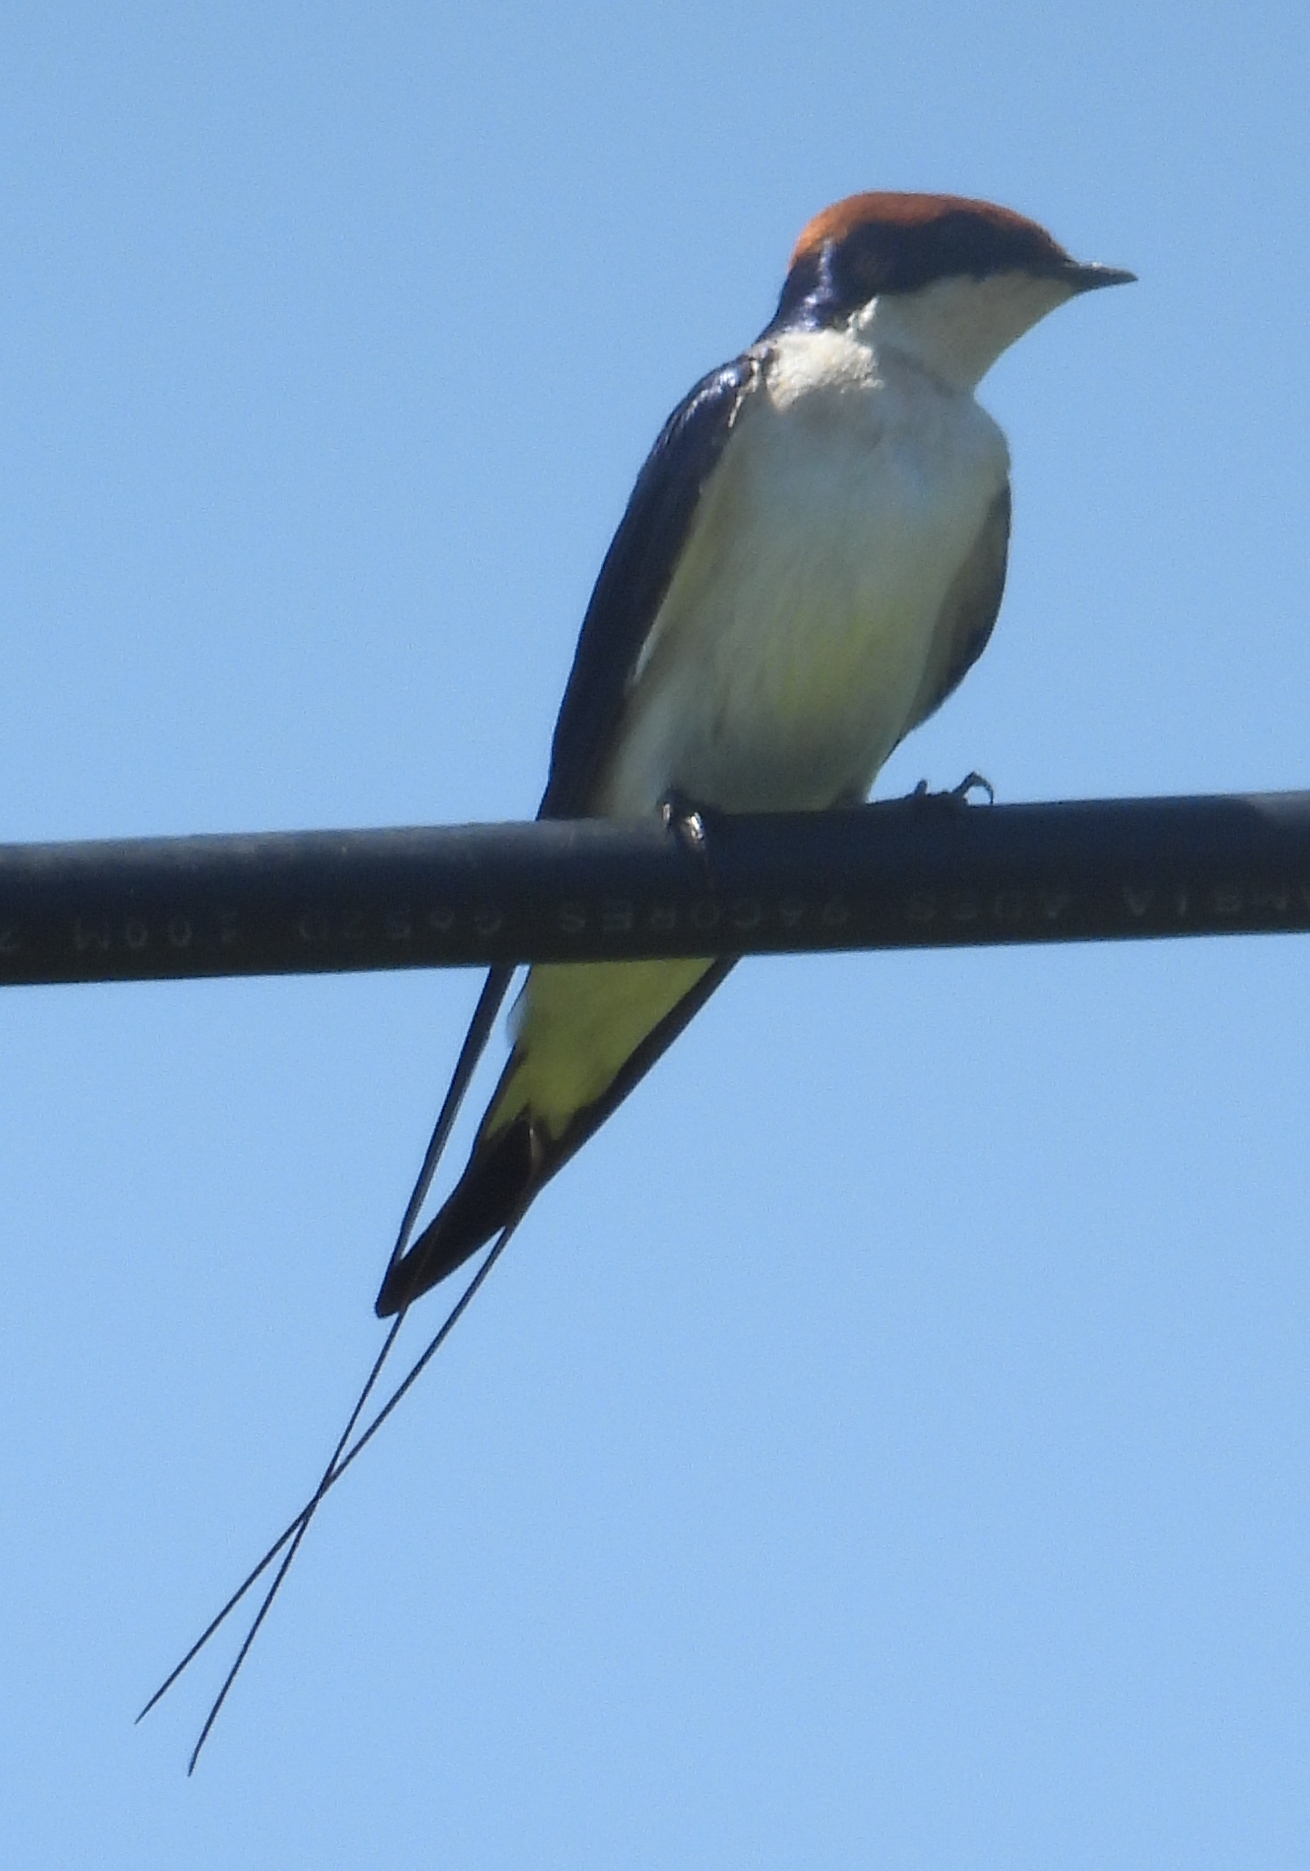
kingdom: Animalia
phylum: Chordata
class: Aves
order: Passeriformes
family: Hirundinidae
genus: Hirundo
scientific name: Hirundo smithii
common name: Wire-tailed swallow
